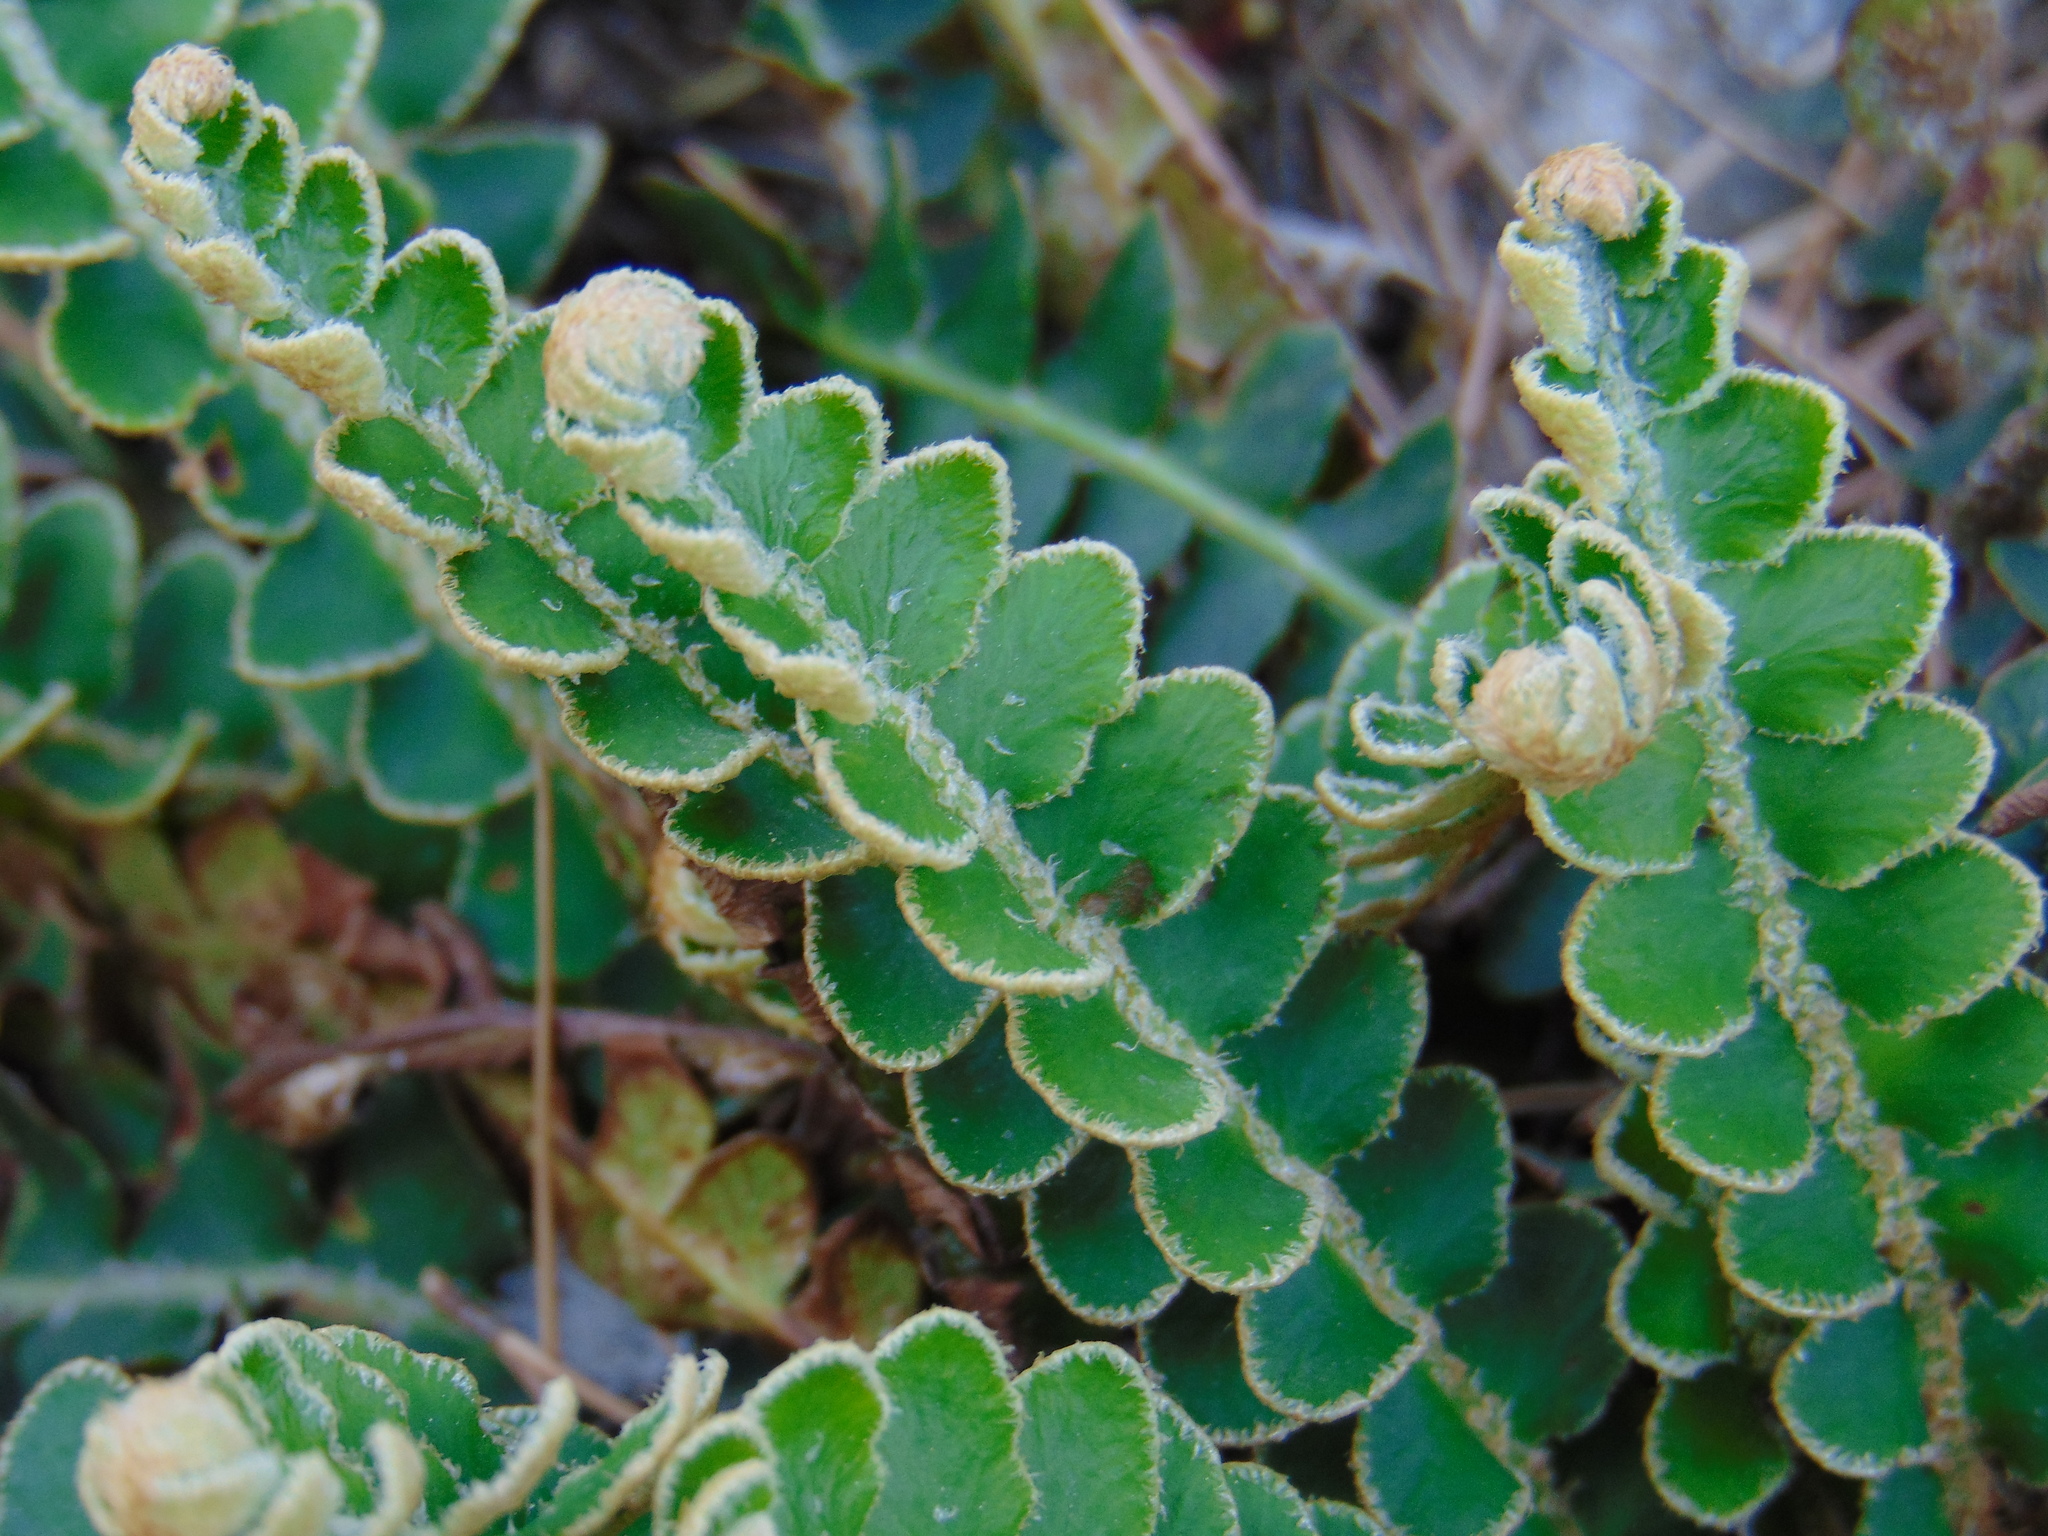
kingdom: Plantae
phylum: Tracheophyta
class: Polypodiopsida
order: Polypodiales
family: Aspleniaceae
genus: Asplenium
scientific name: Asplenium ceterach
